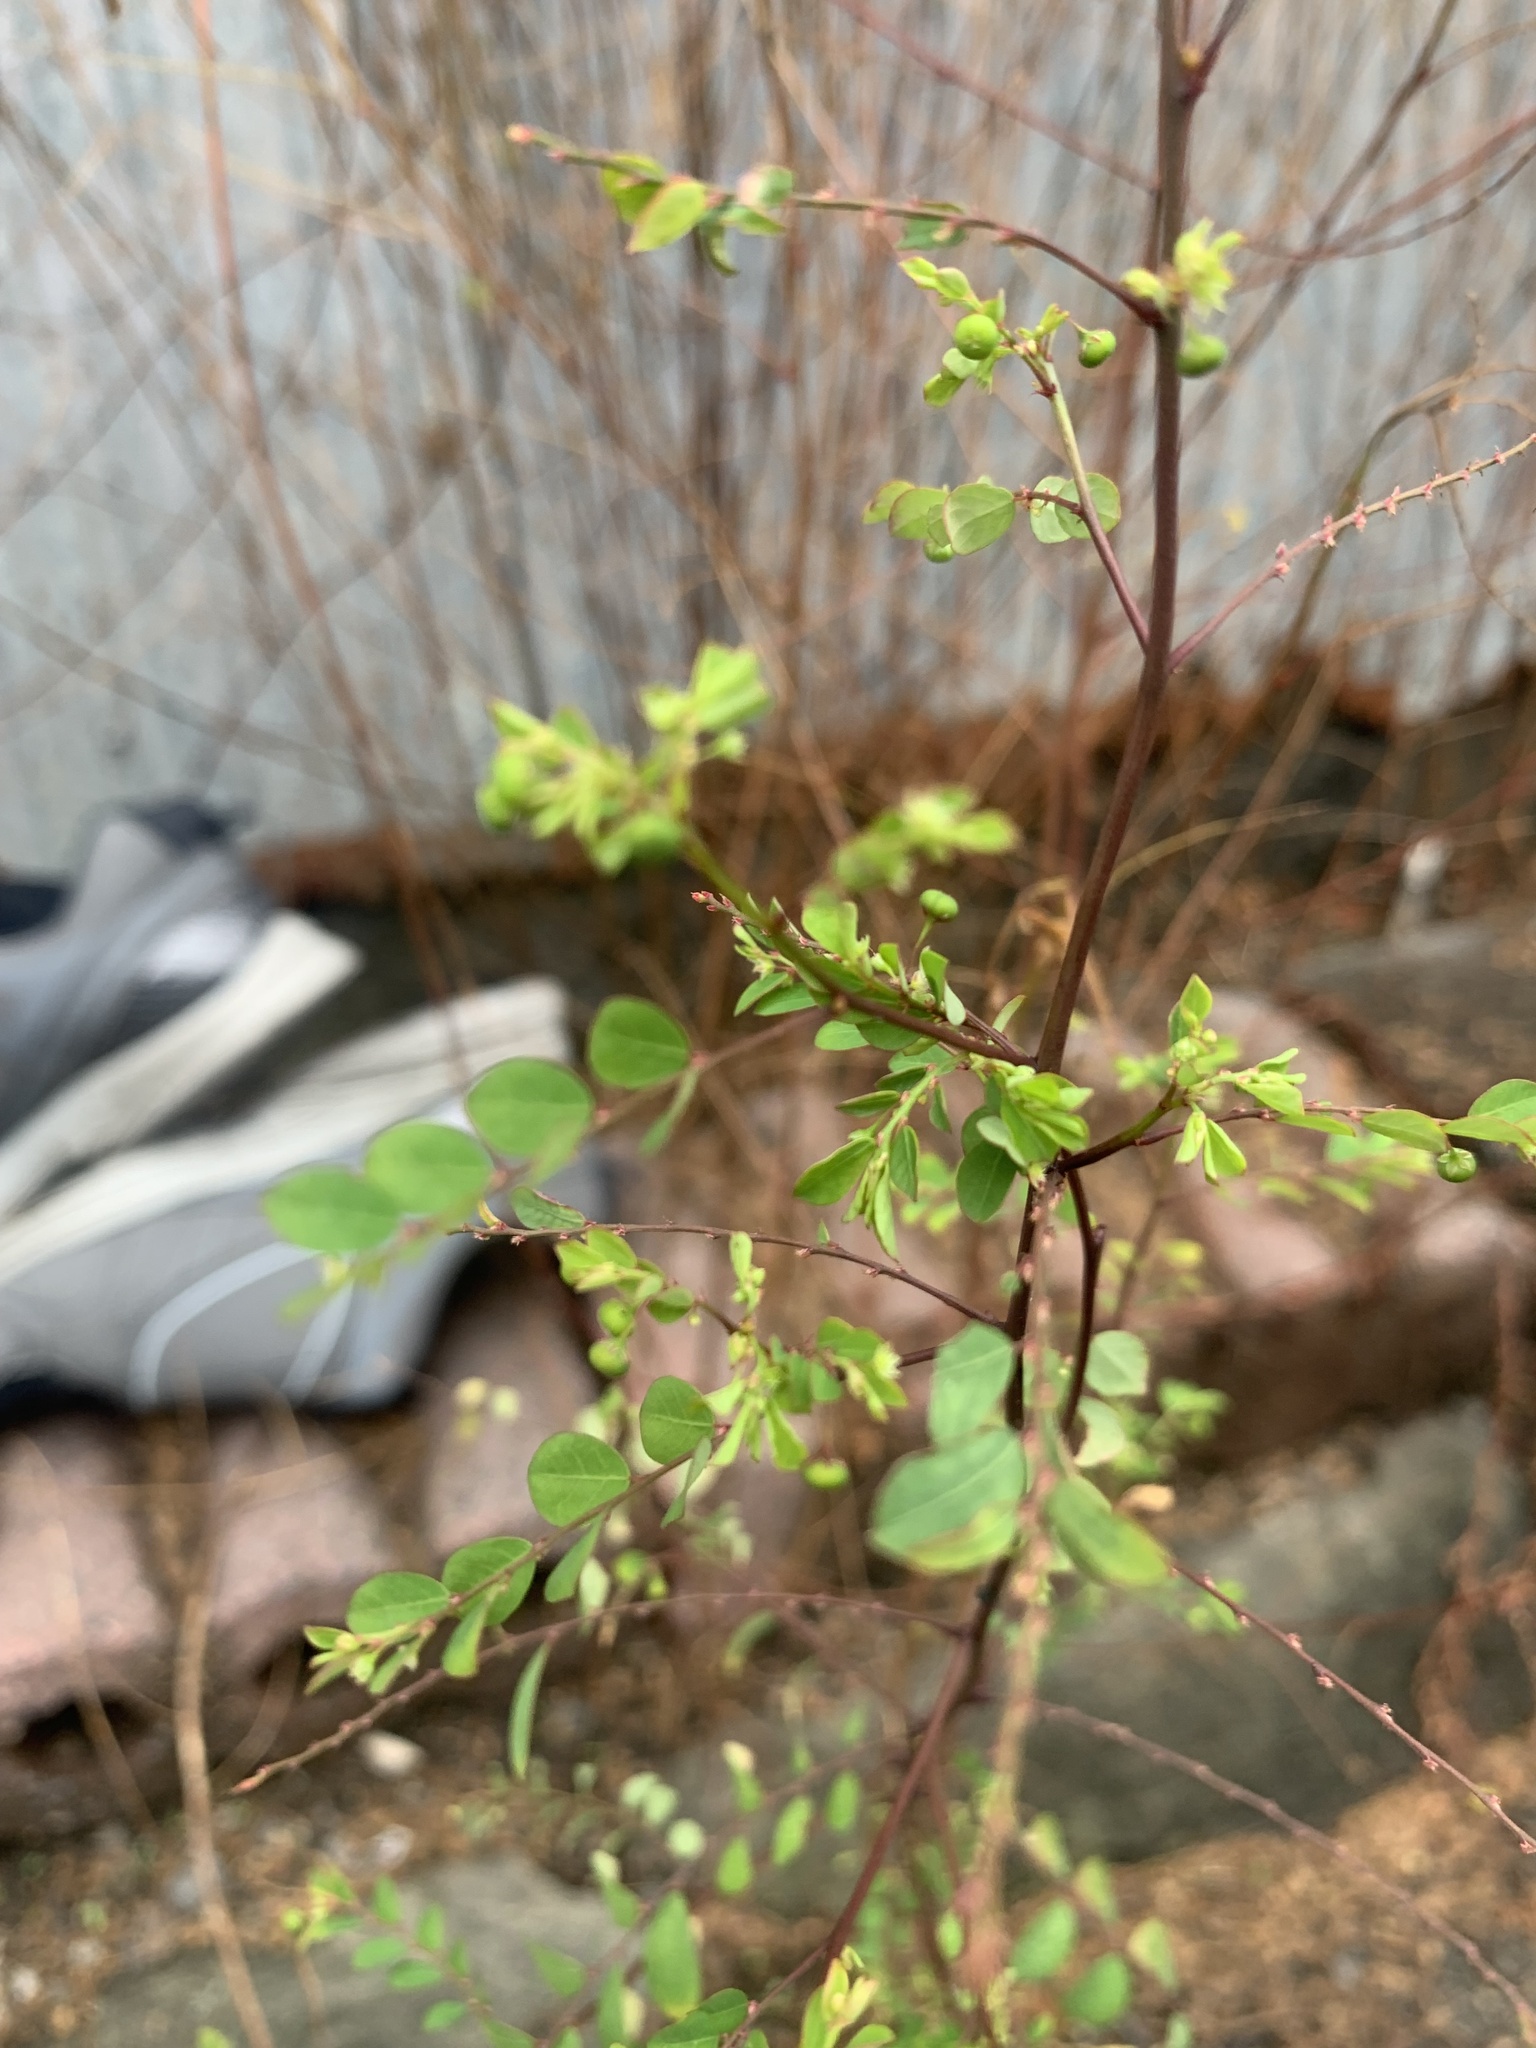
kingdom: Plantae
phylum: Tracheophyta
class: Magnoliopsida
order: Malpighiales
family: Phyllanthaceae
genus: Phyllanthus
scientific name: Phyllanthus tenellus
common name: Mascarene island leaf-flower
